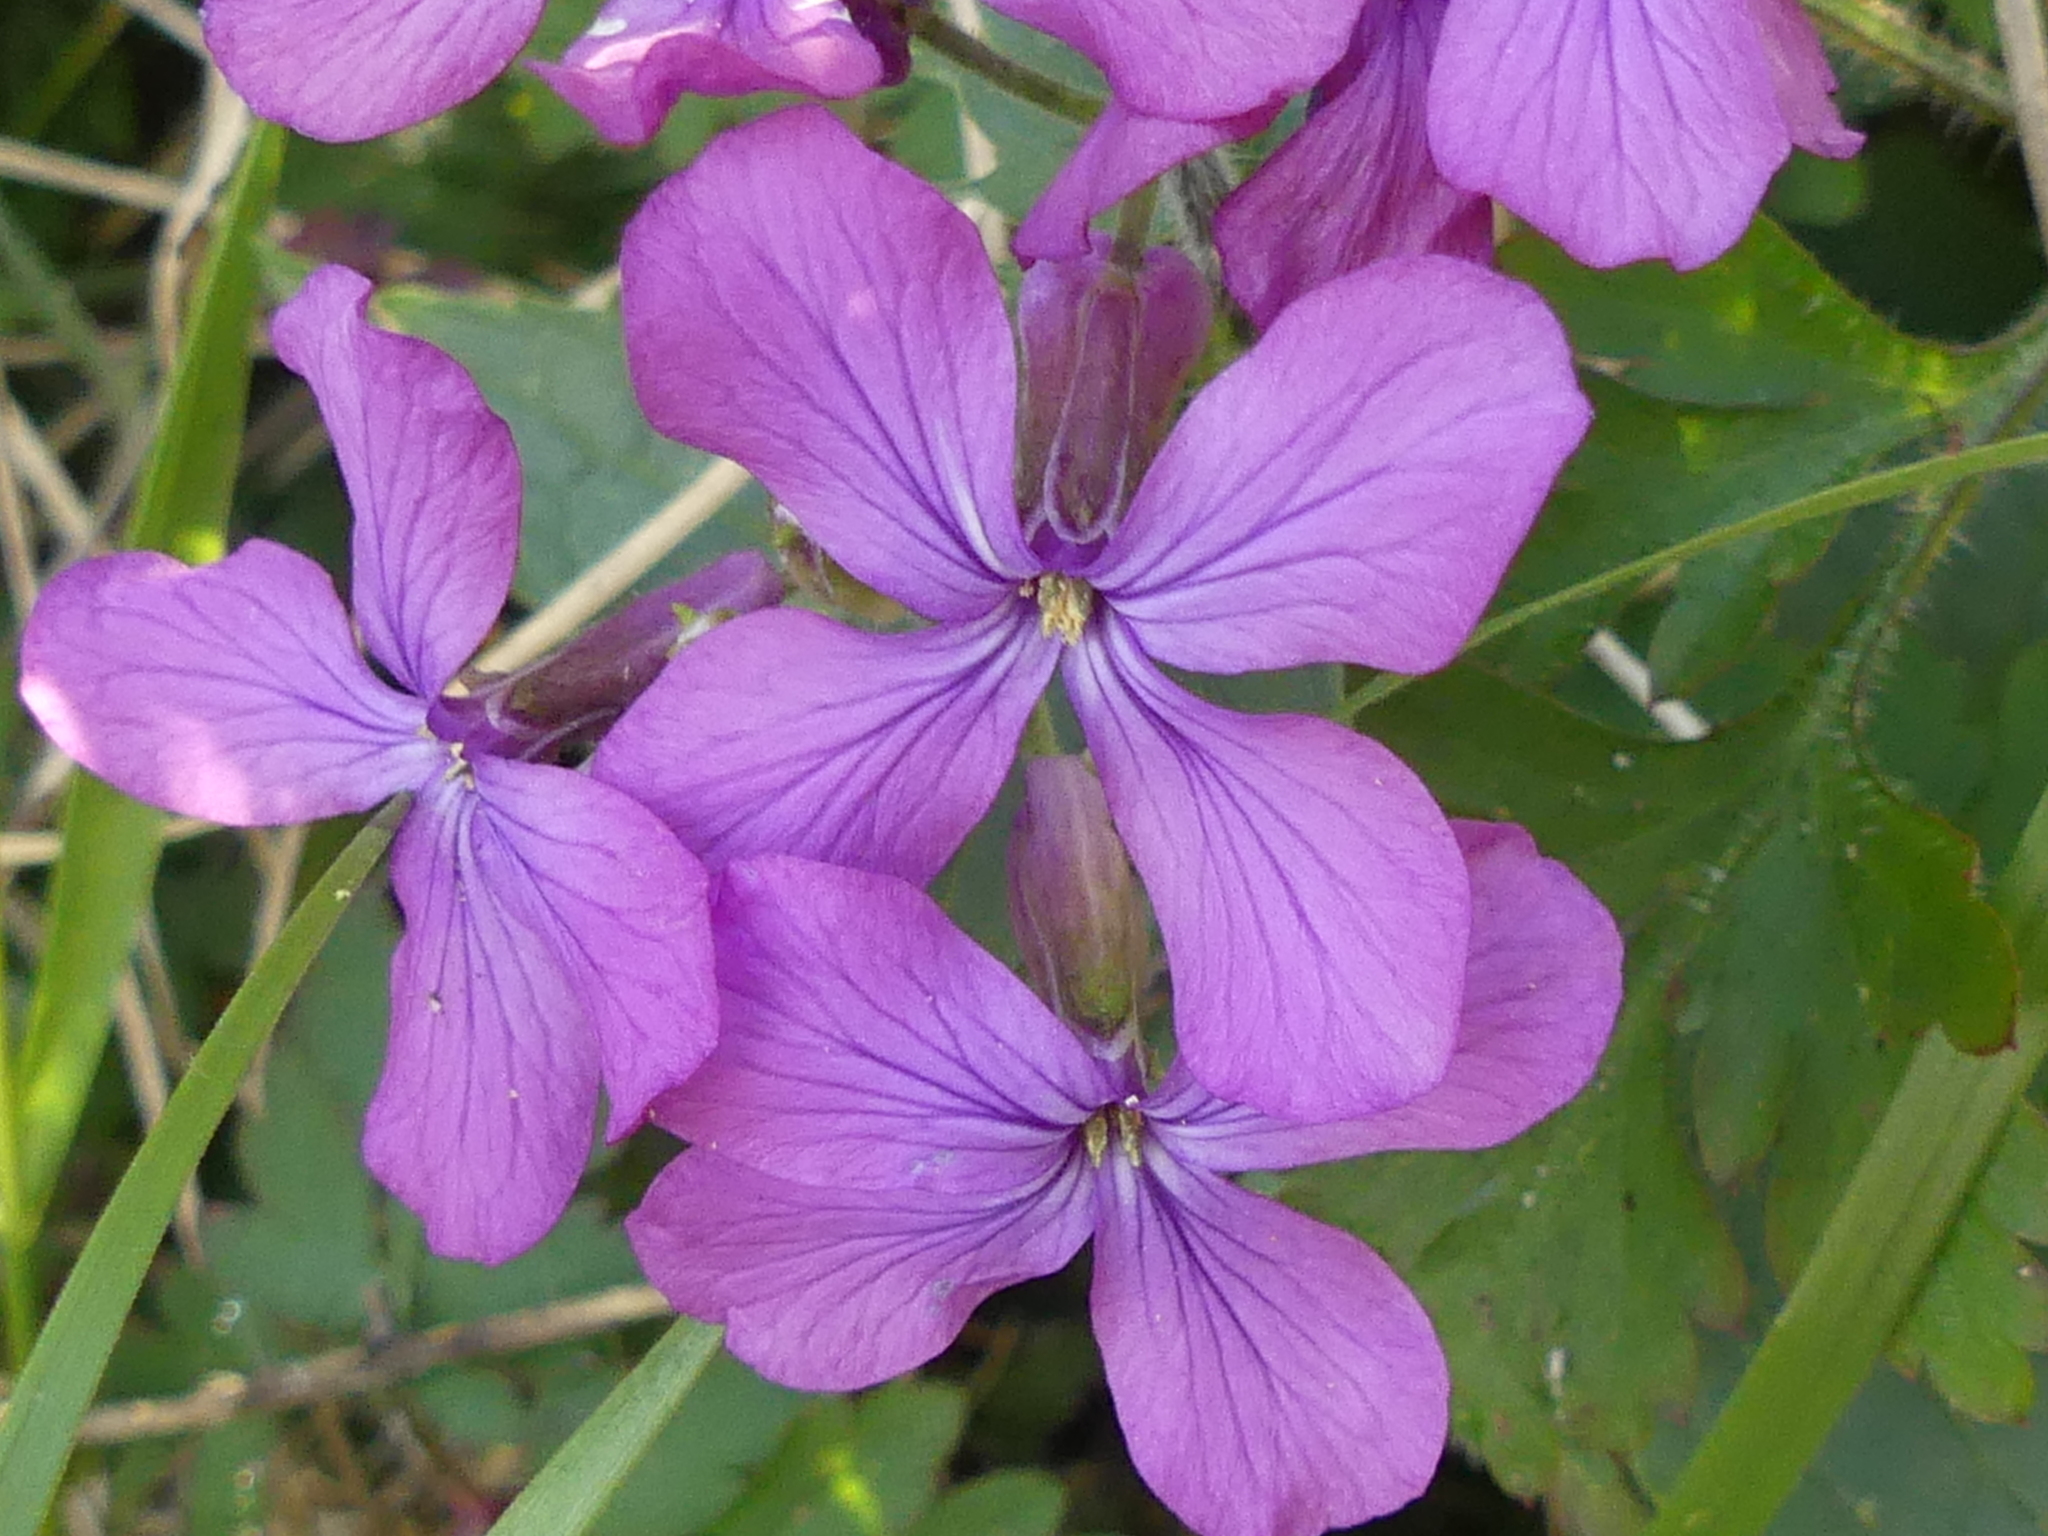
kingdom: Plantae
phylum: Tracheophyta
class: Magnoliopsida
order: Brassicales
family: Brassicaceae
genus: Lunaria
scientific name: Lunaria annua
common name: Honesty
